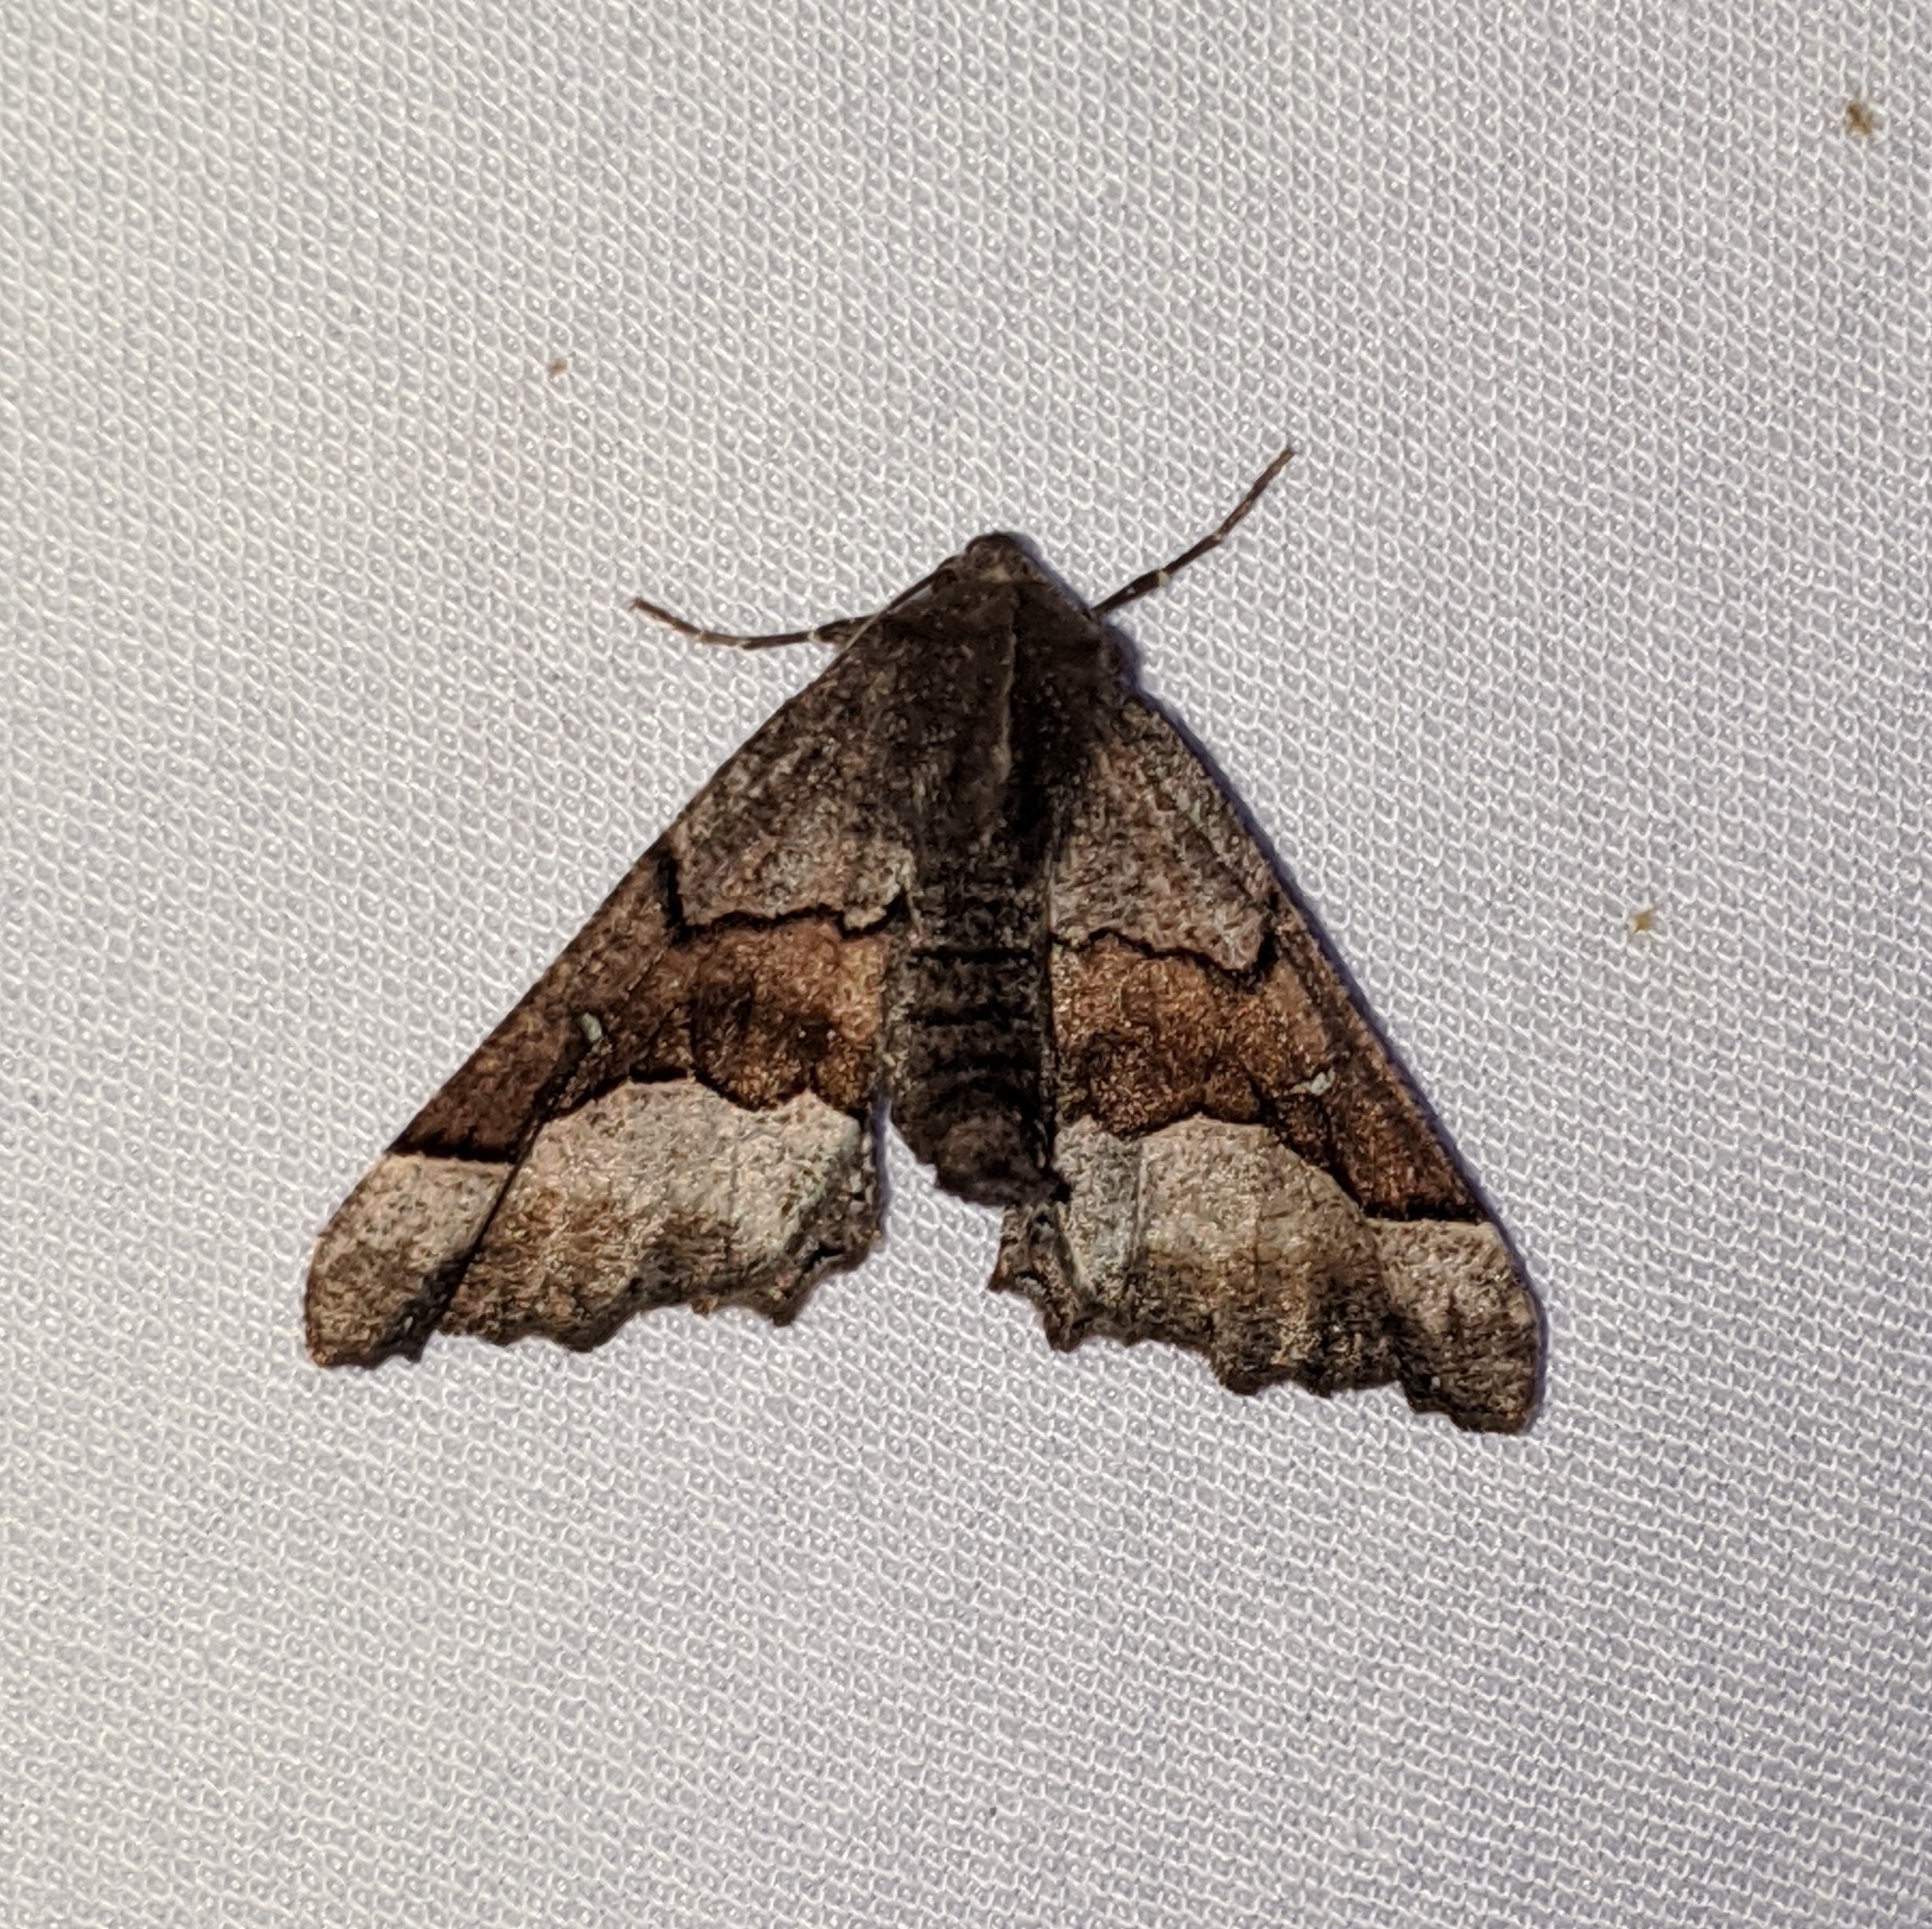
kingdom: Animalia
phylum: Arthropoda
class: Insecta
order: Lepidoptera
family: Geometridae
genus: Pero
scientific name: Pero behrensaria
